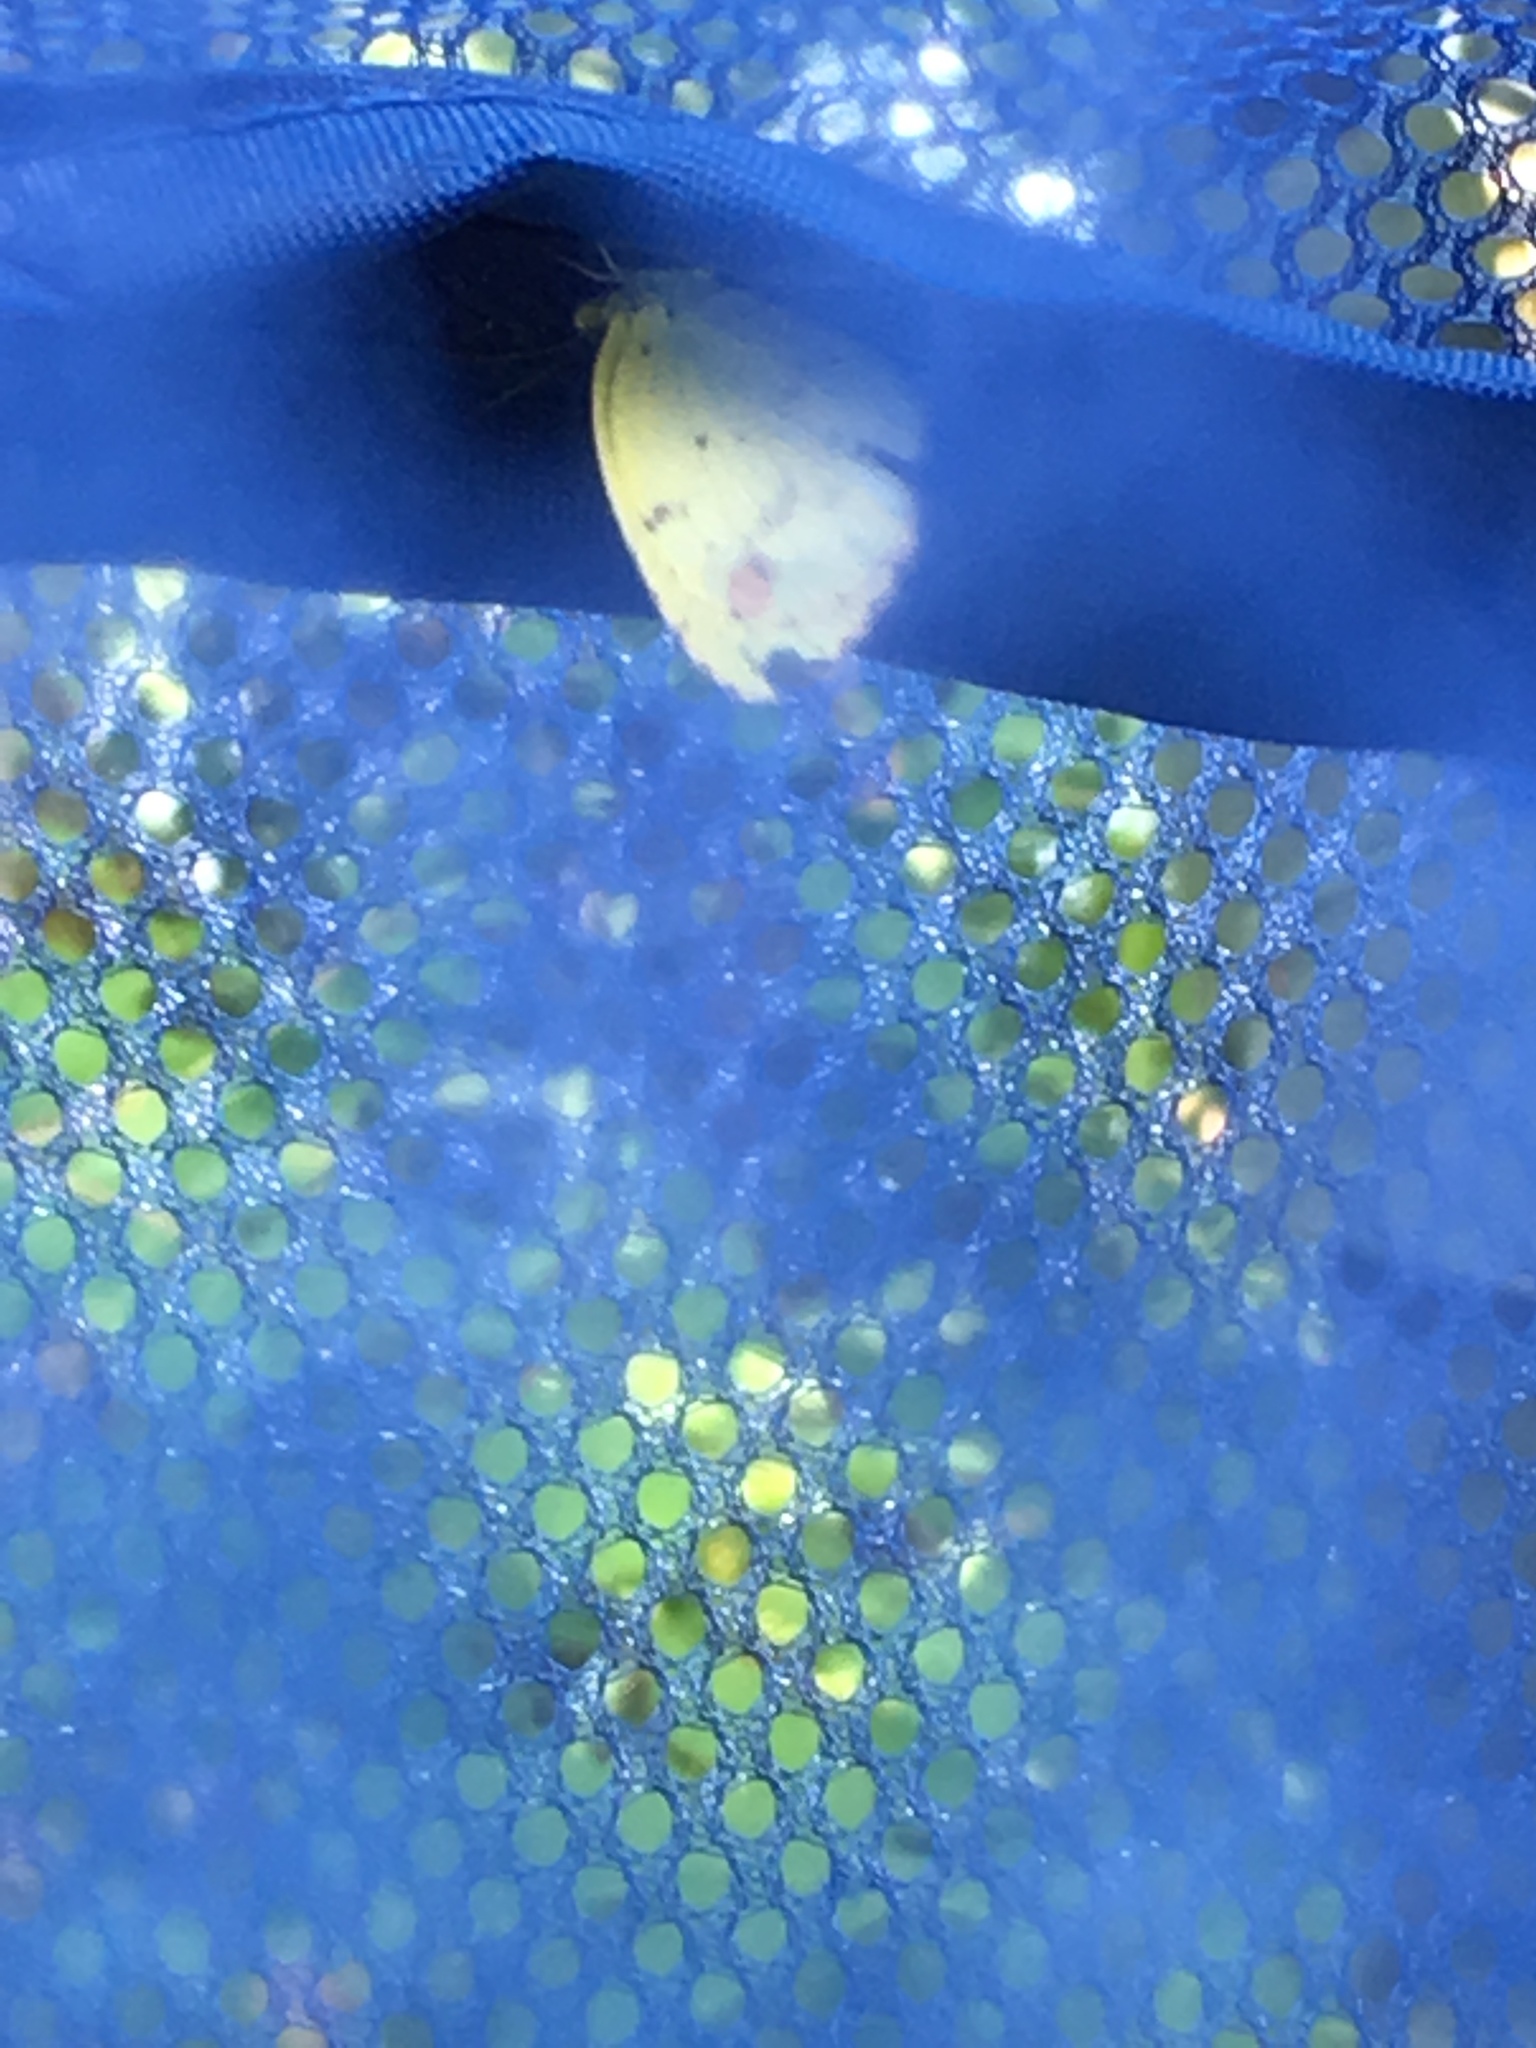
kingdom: Animalia
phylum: Arthropoda
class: Insecta
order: Lepidoptera
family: Pieridae
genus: Pyrisitia
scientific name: Pyrisitia lisa
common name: Little yellow
